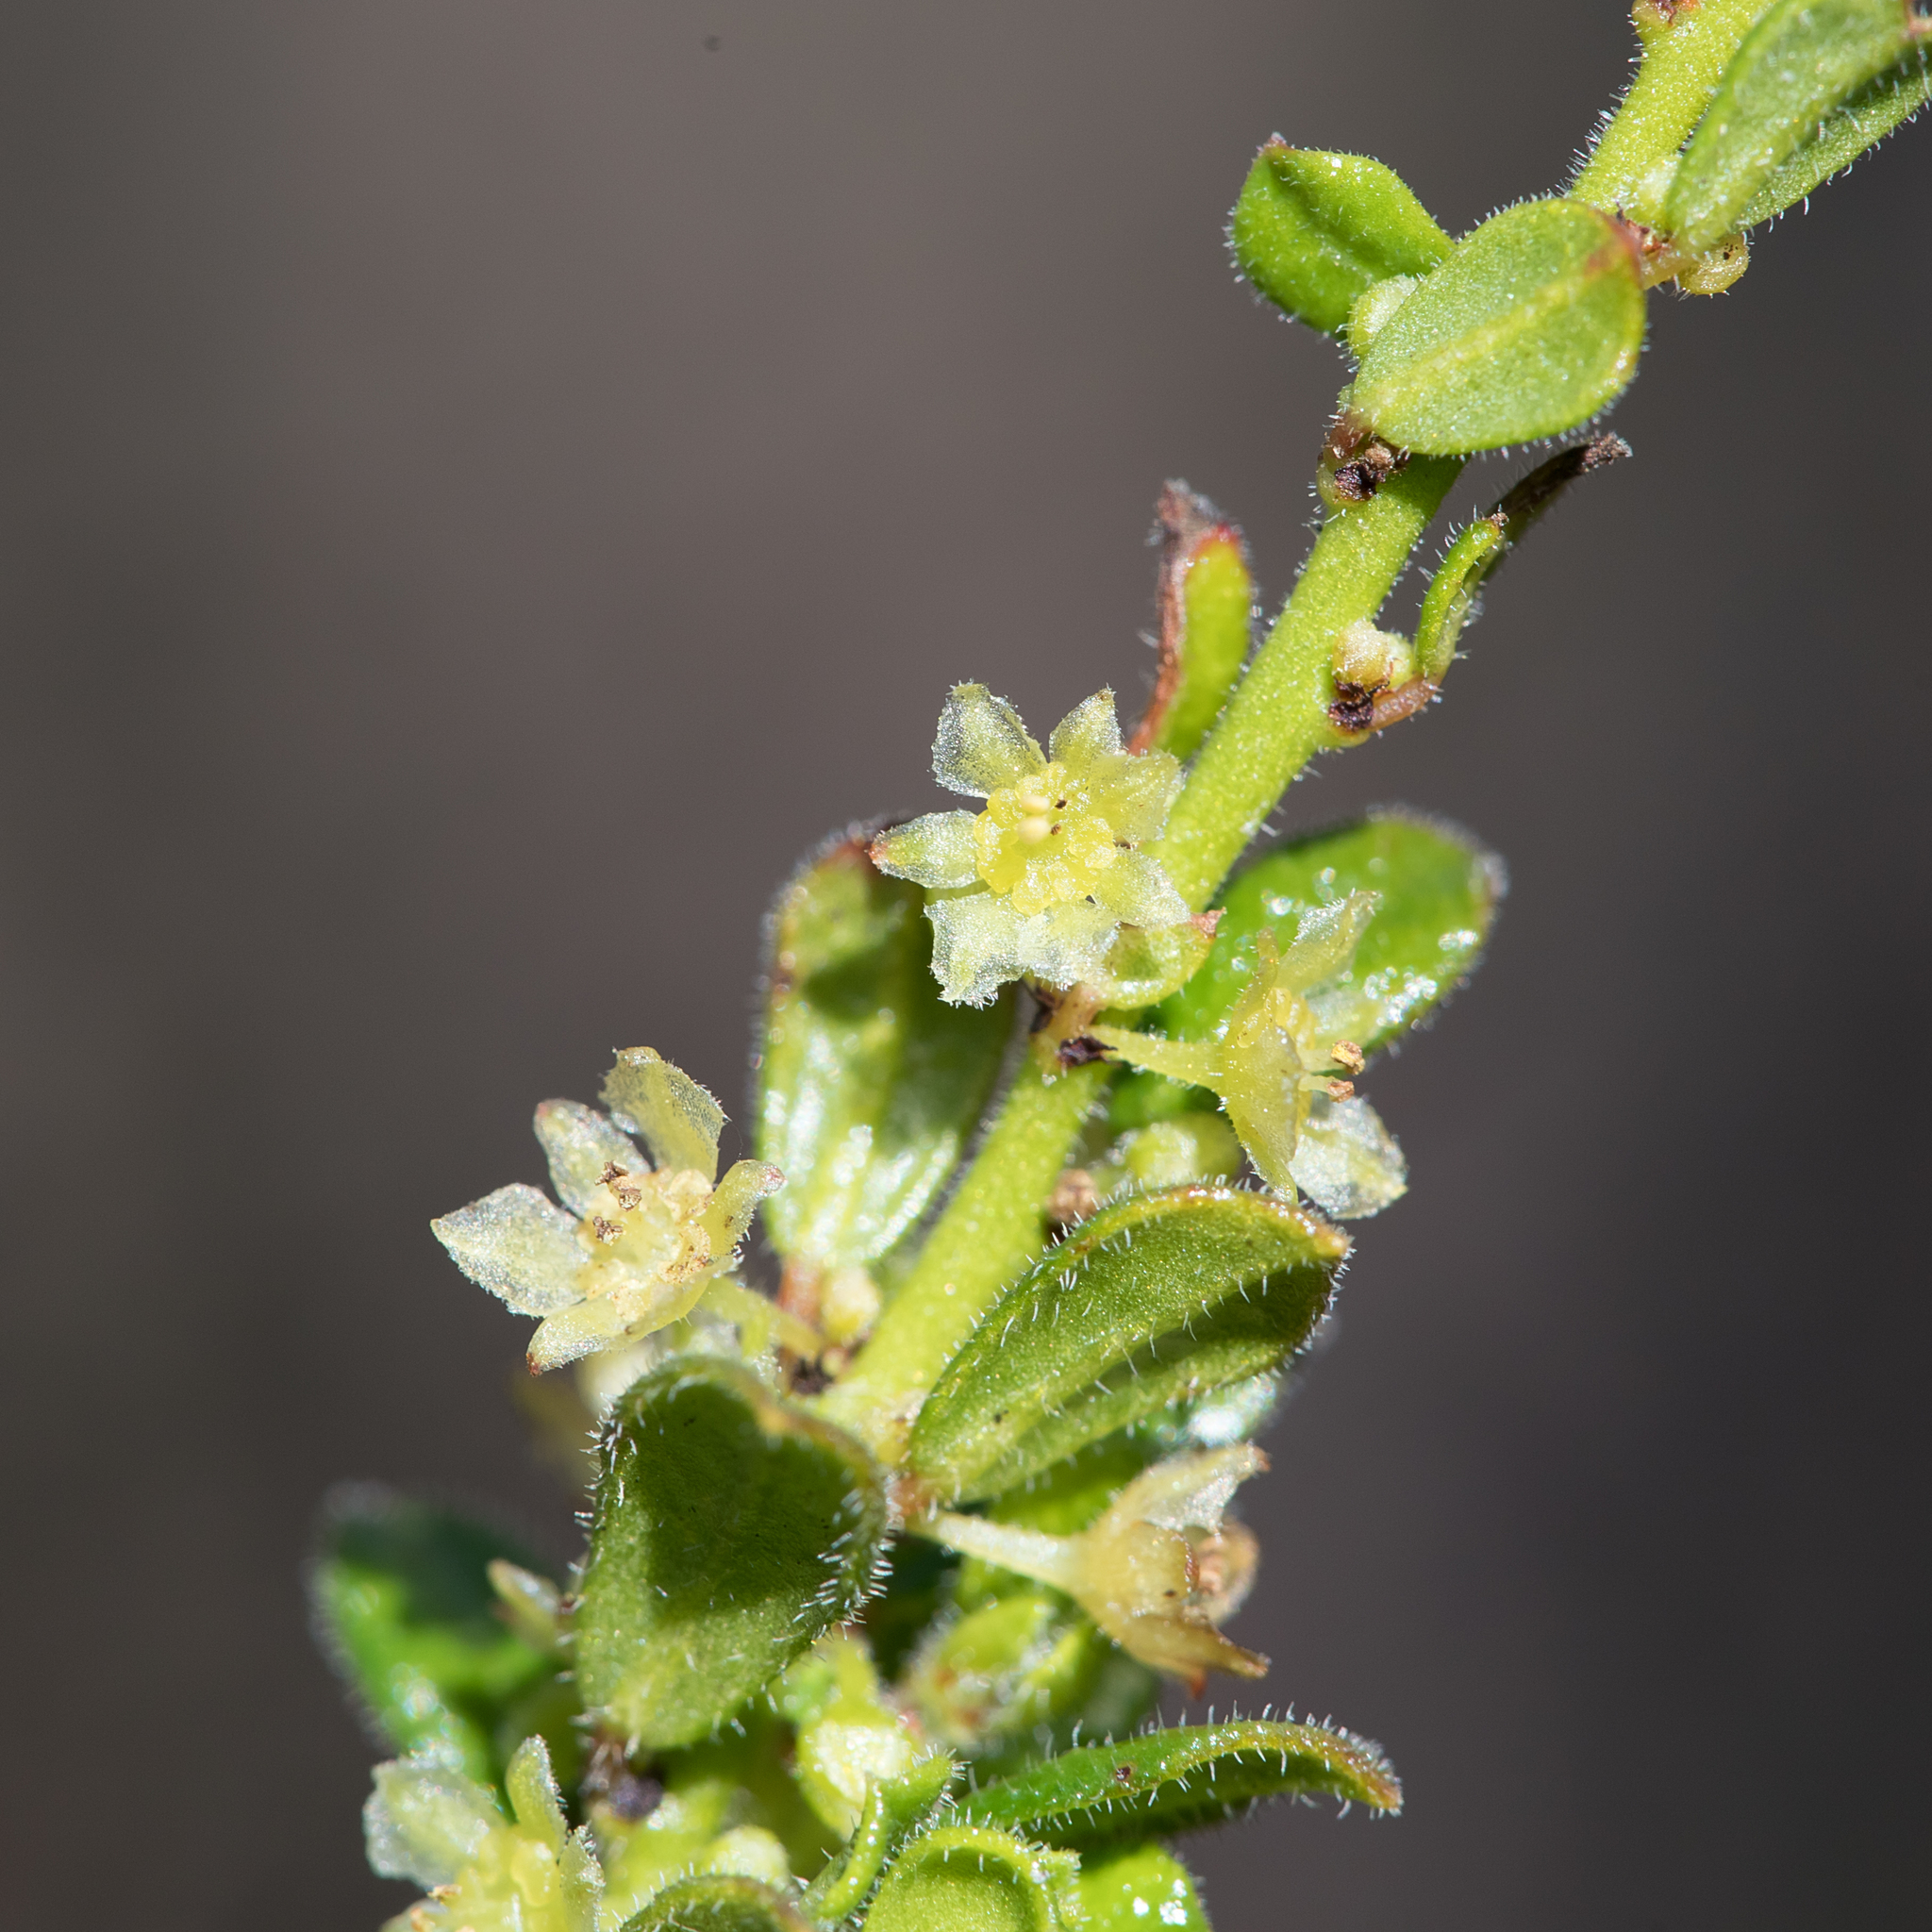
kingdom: Plantae
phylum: Tracheophyta
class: Magnoliopsida
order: Malpighiales
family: Phyllanthaceae
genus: Phyllanthus
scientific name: Phyllanthus hirtellus
